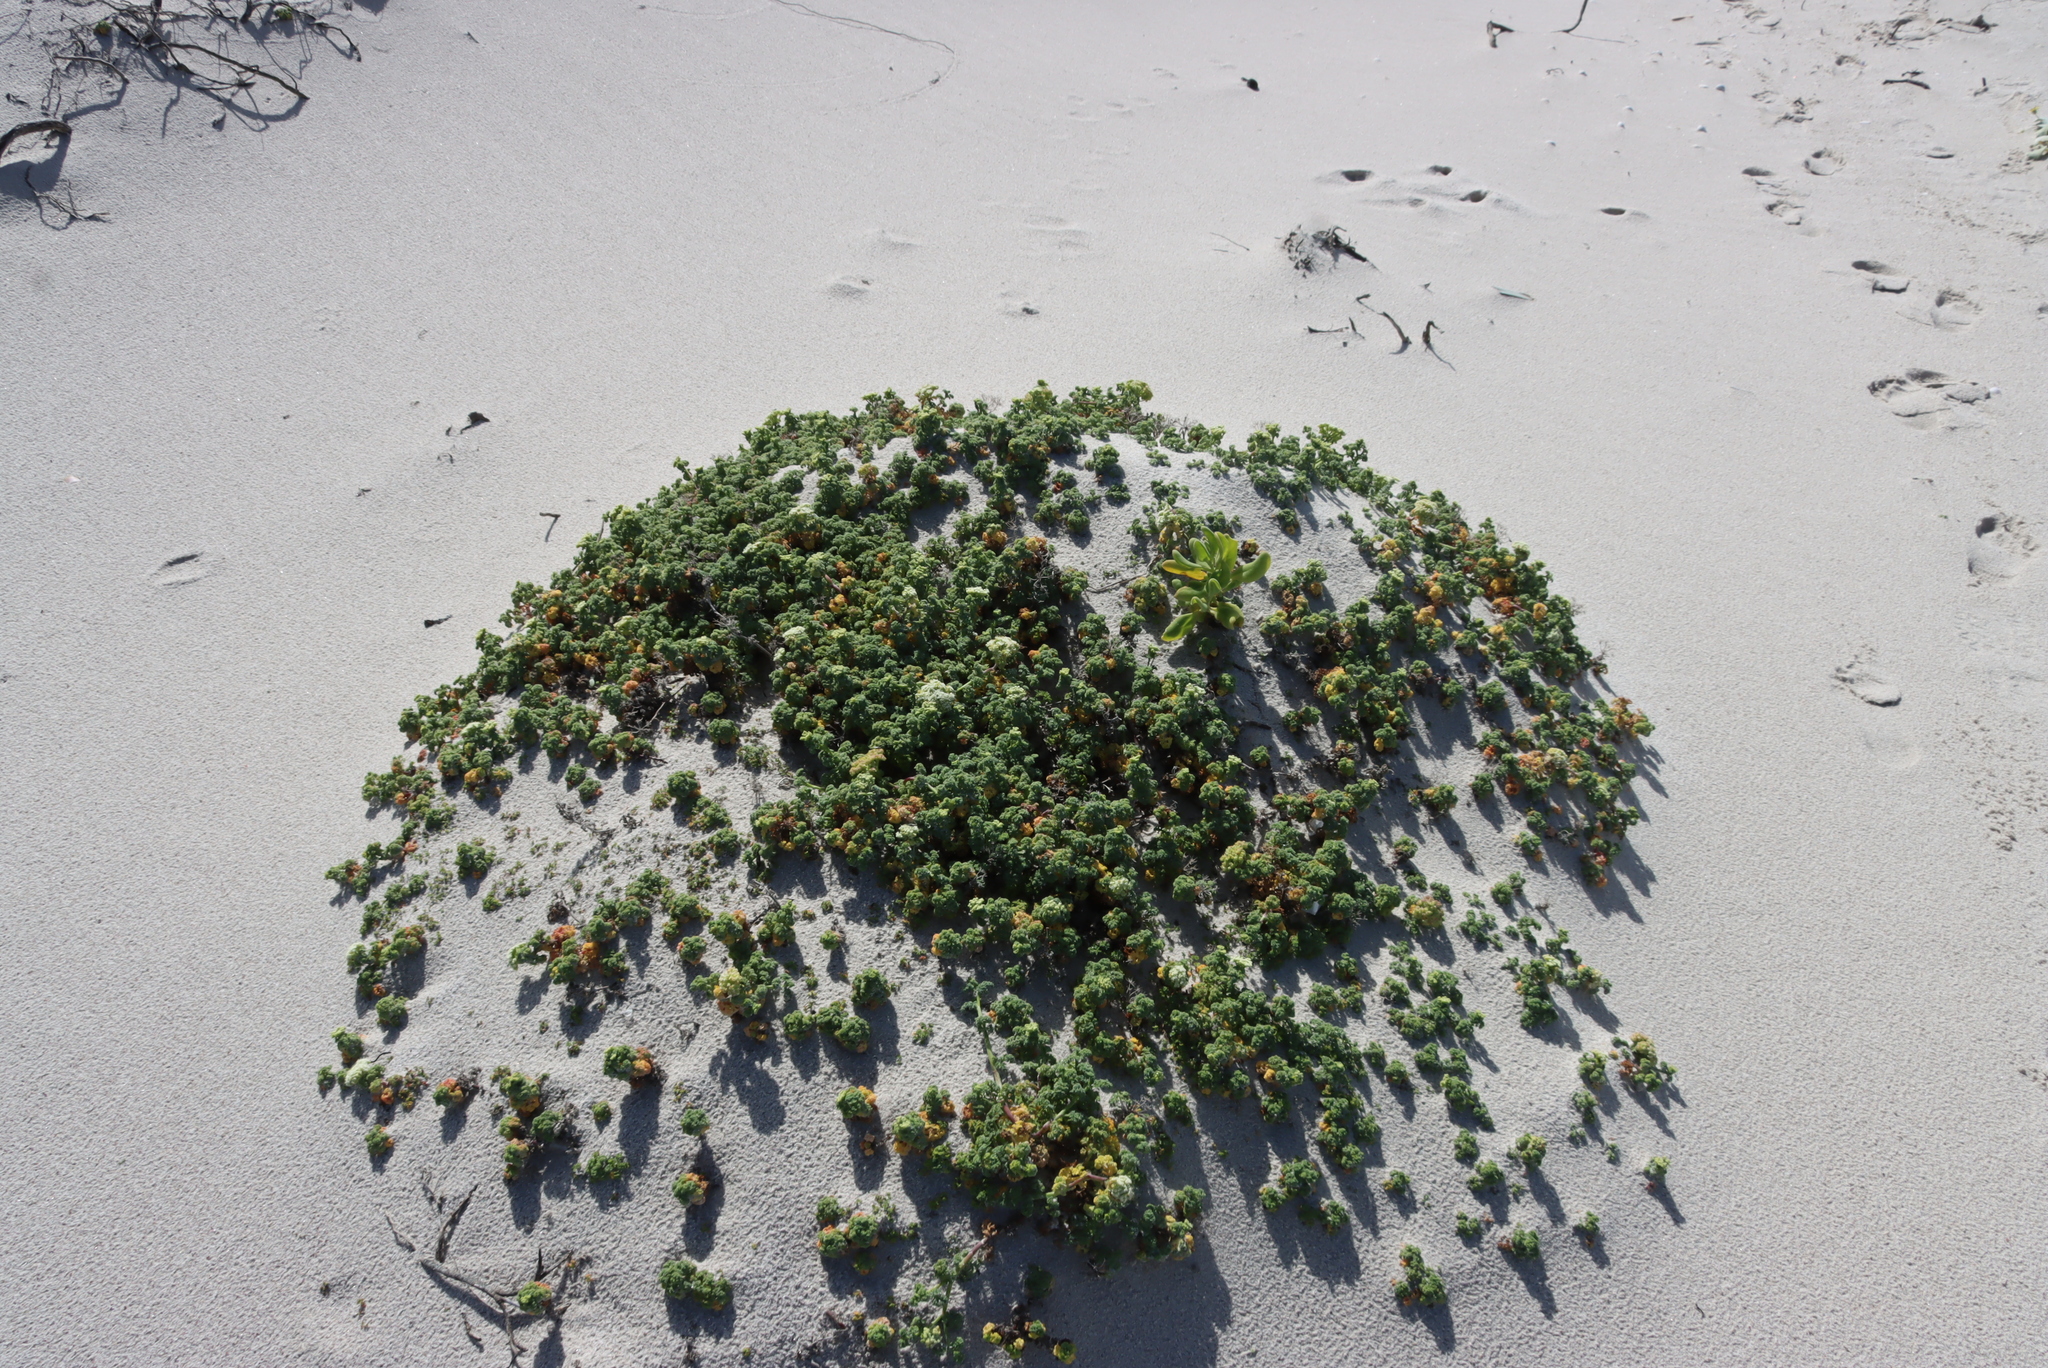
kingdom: Plantae
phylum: Tracheophyta
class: Magnoliopsida
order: Apiales
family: Apiaceae
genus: Dasispermum
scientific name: Dasispermum suffruticosum
